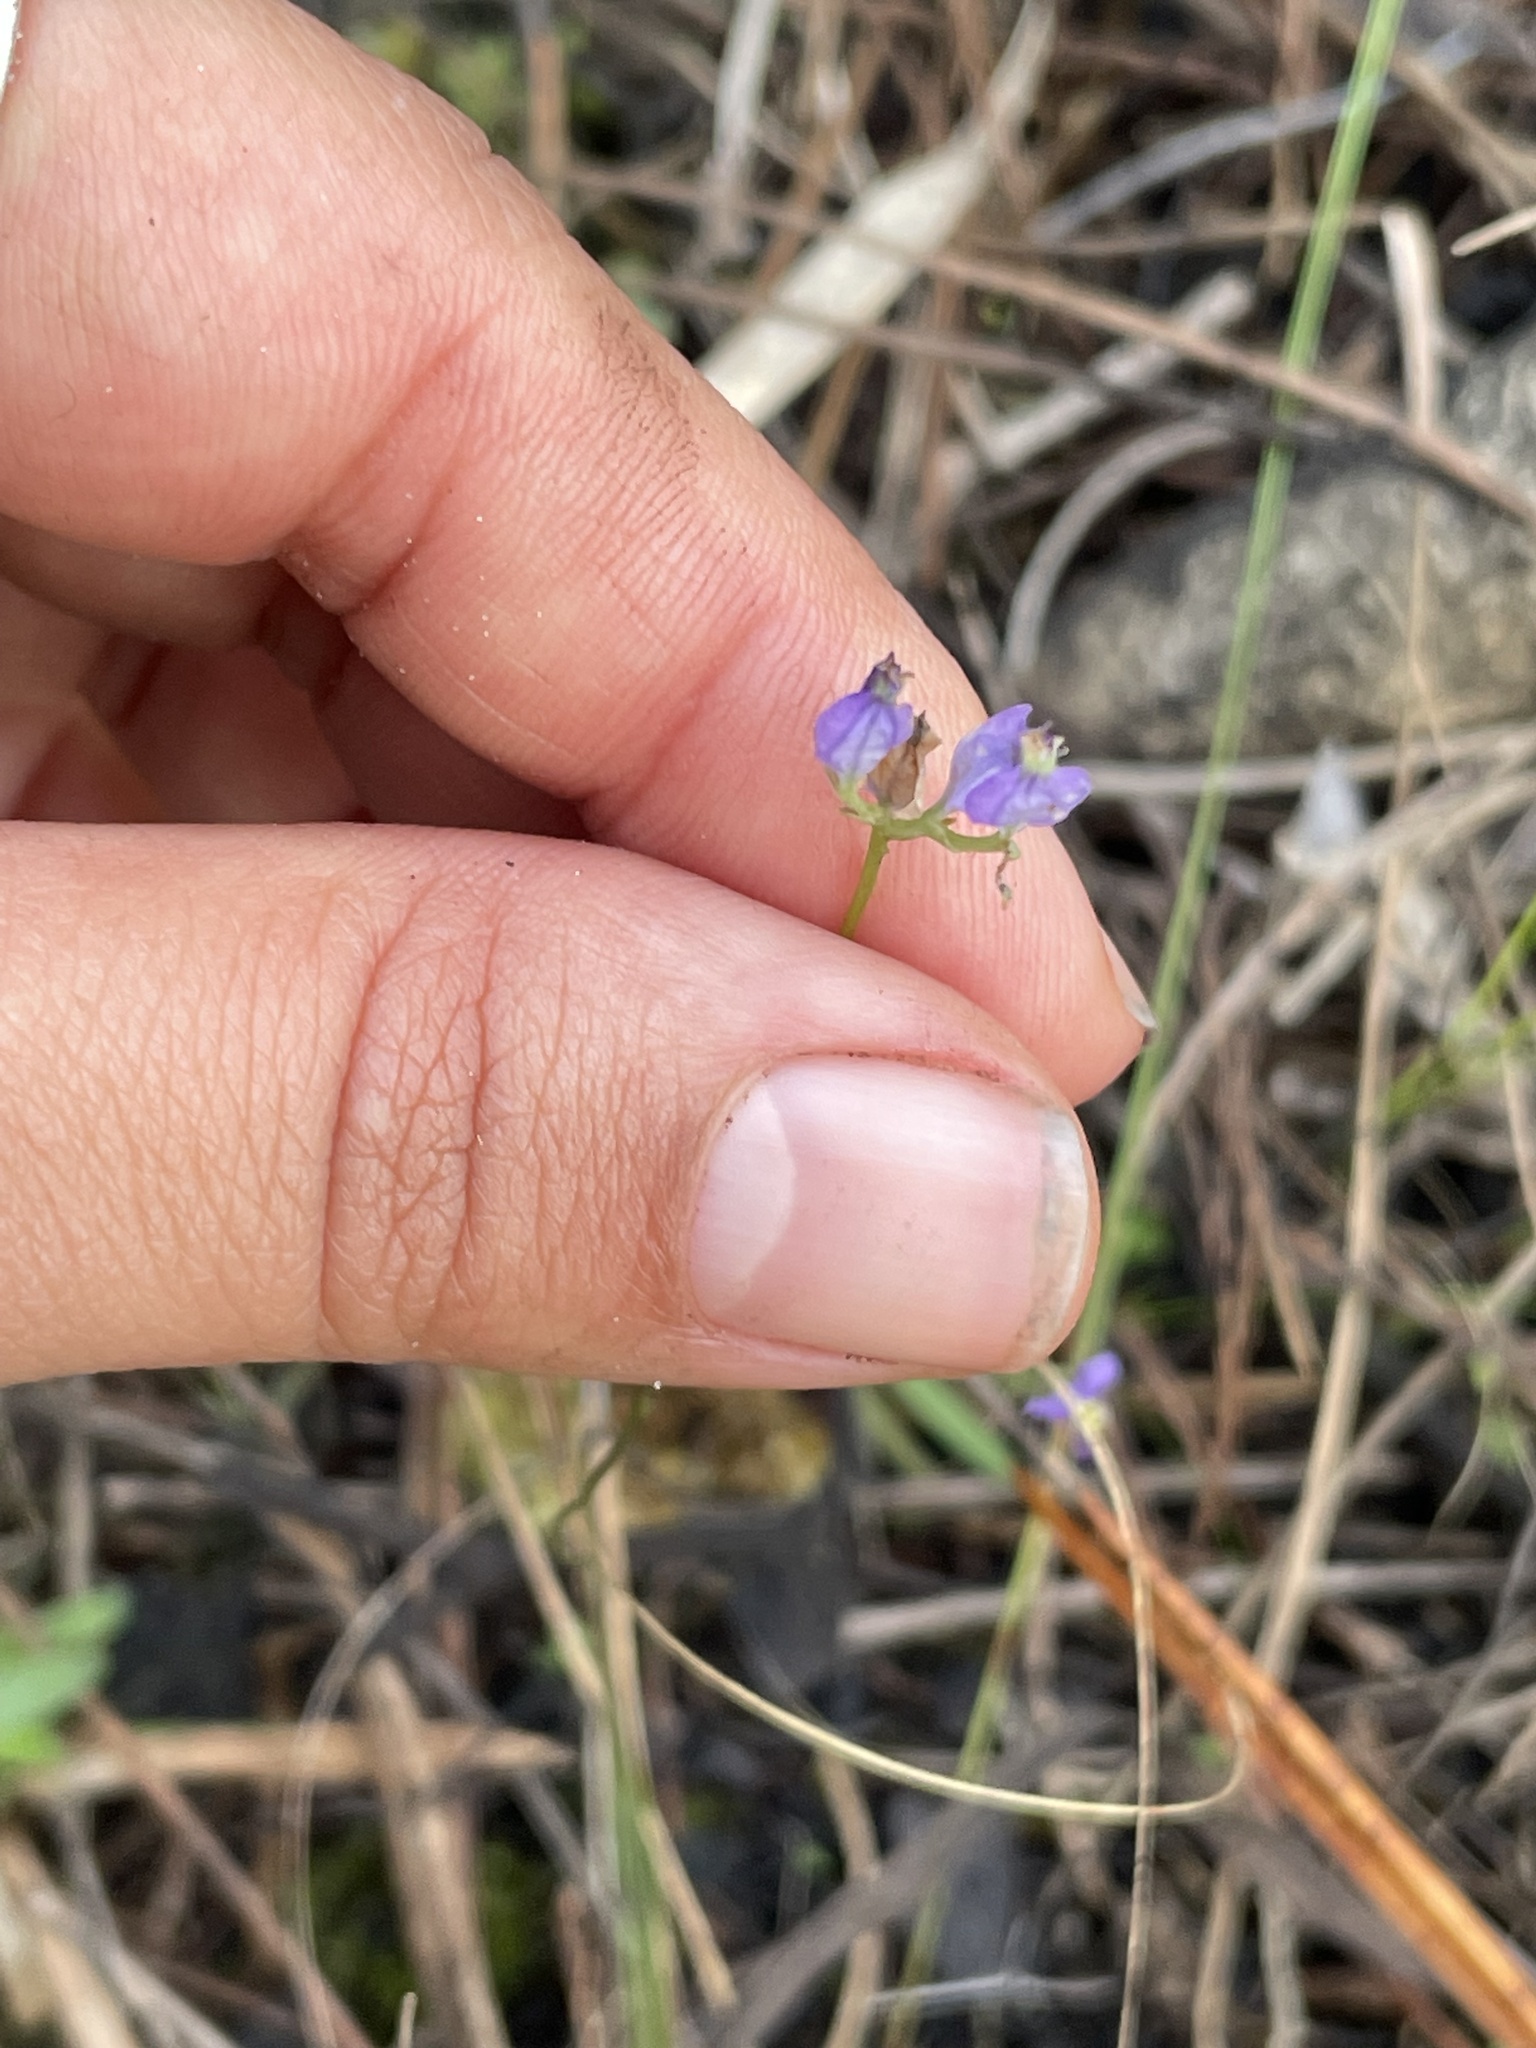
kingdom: Plantae
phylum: Tracheophyta
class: Liliopsida
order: Dioscoreales
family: Burmanniaceae
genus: Burmannia
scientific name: Burmannia biflora
